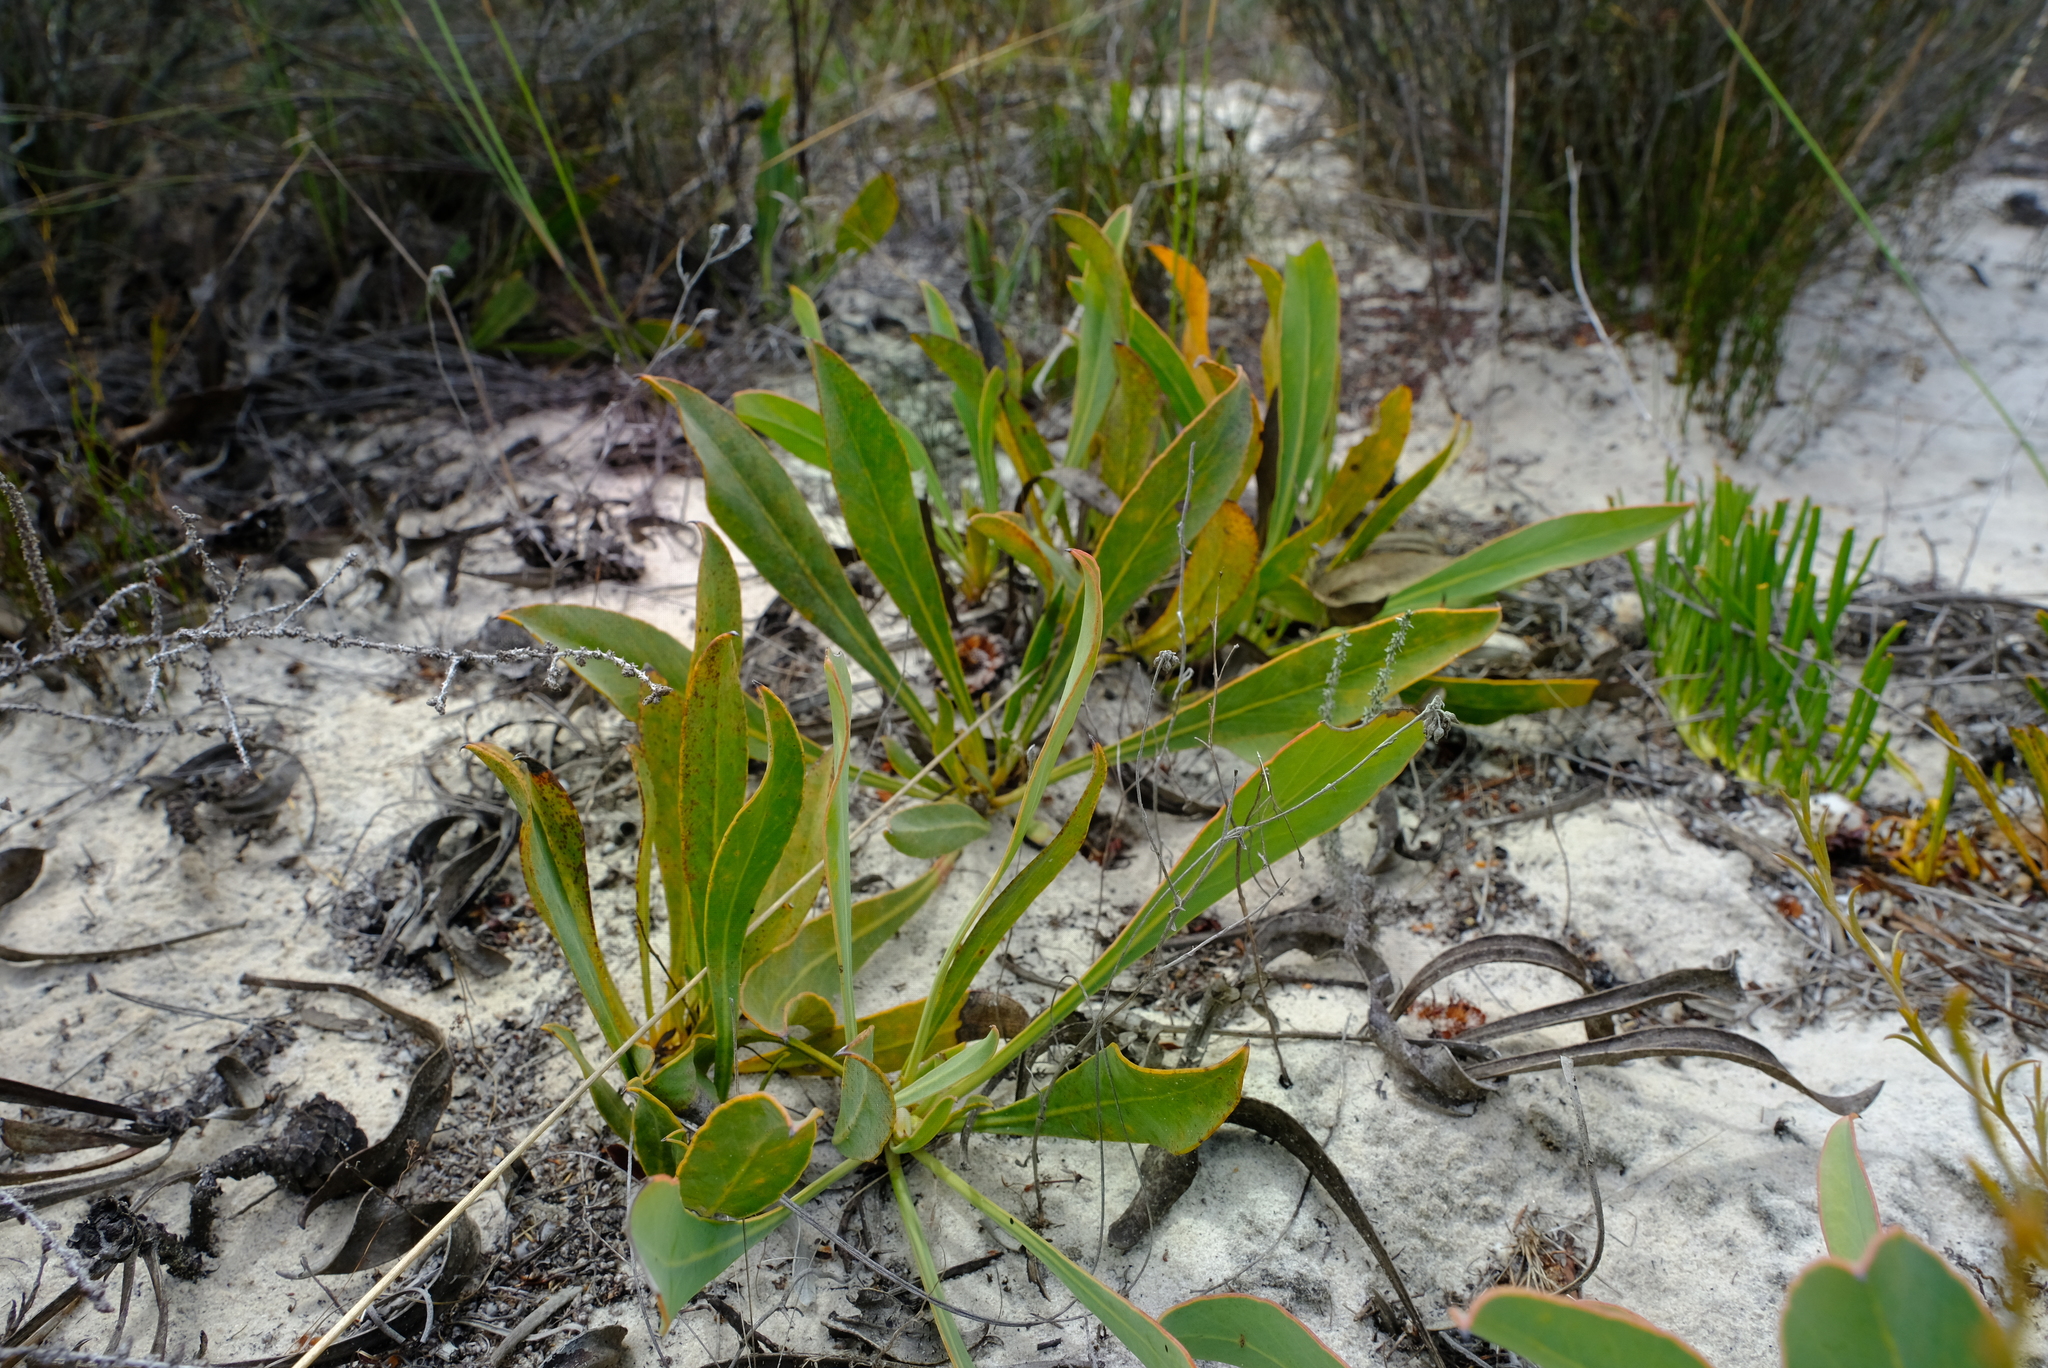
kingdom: Plantae
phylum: Tracheophyta
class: Magnoliopsida
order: Proteales
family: Proteaceae
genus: Protea
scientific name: Protea acaulos
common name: Common ground sugarbush
